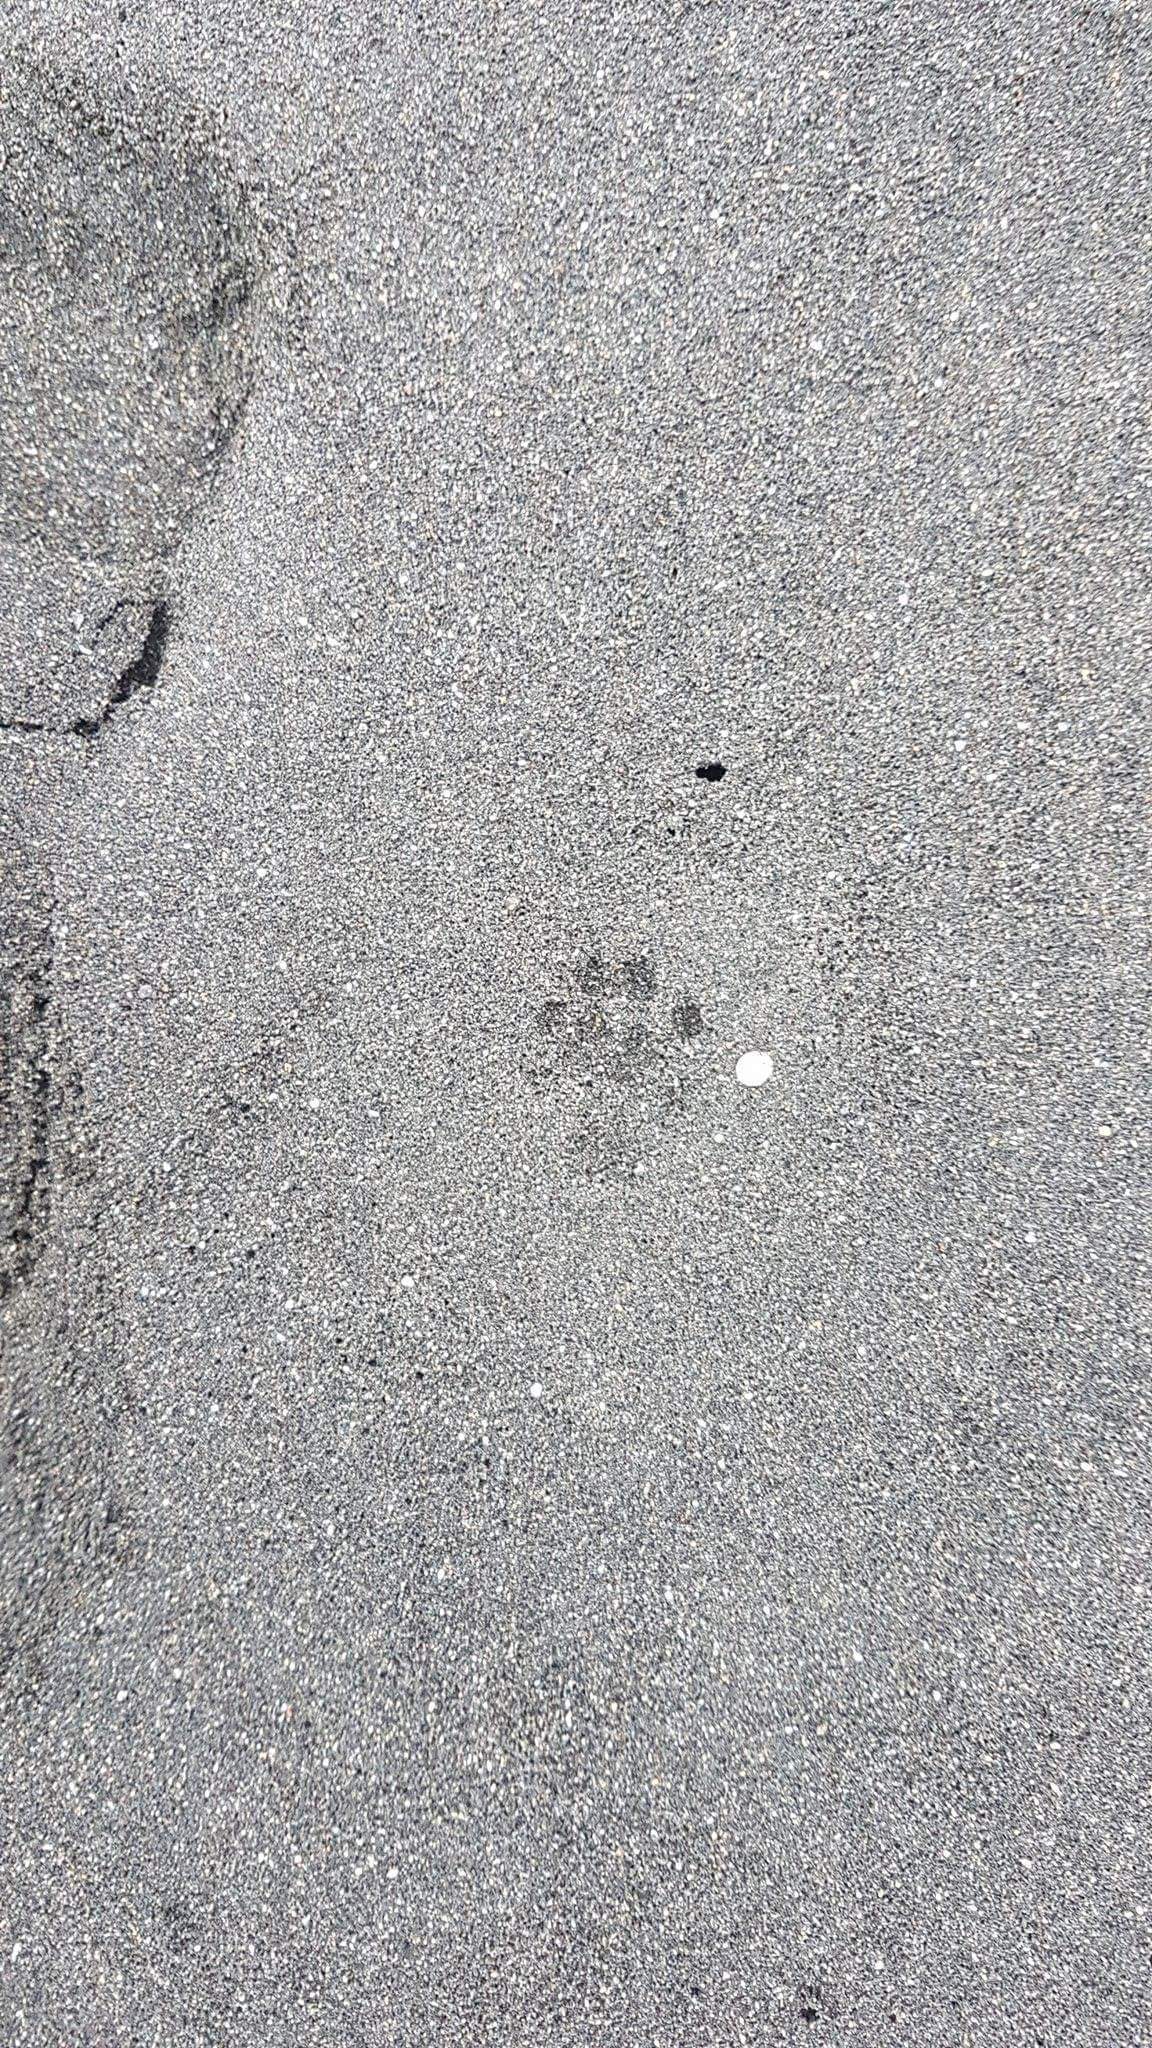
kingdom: Animalia
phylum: Chordata
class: Mammalia
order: Carnivora
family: Felidae
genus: Felis
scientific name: Felis catus
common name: Domestic cat
